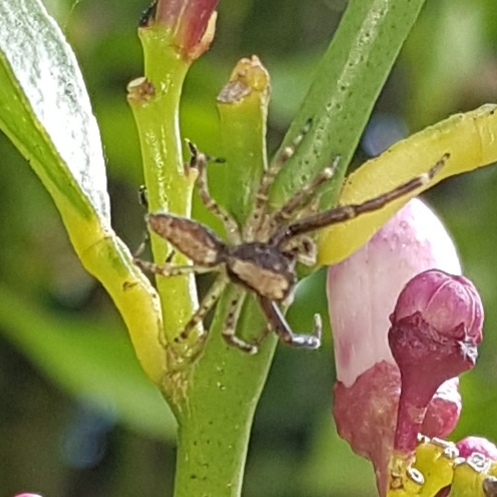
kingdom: Animalia
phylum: Arthropoda
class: Arachnida
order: Araneae
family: Salticidae
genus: Helpis
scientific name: Helpis minitabunda
